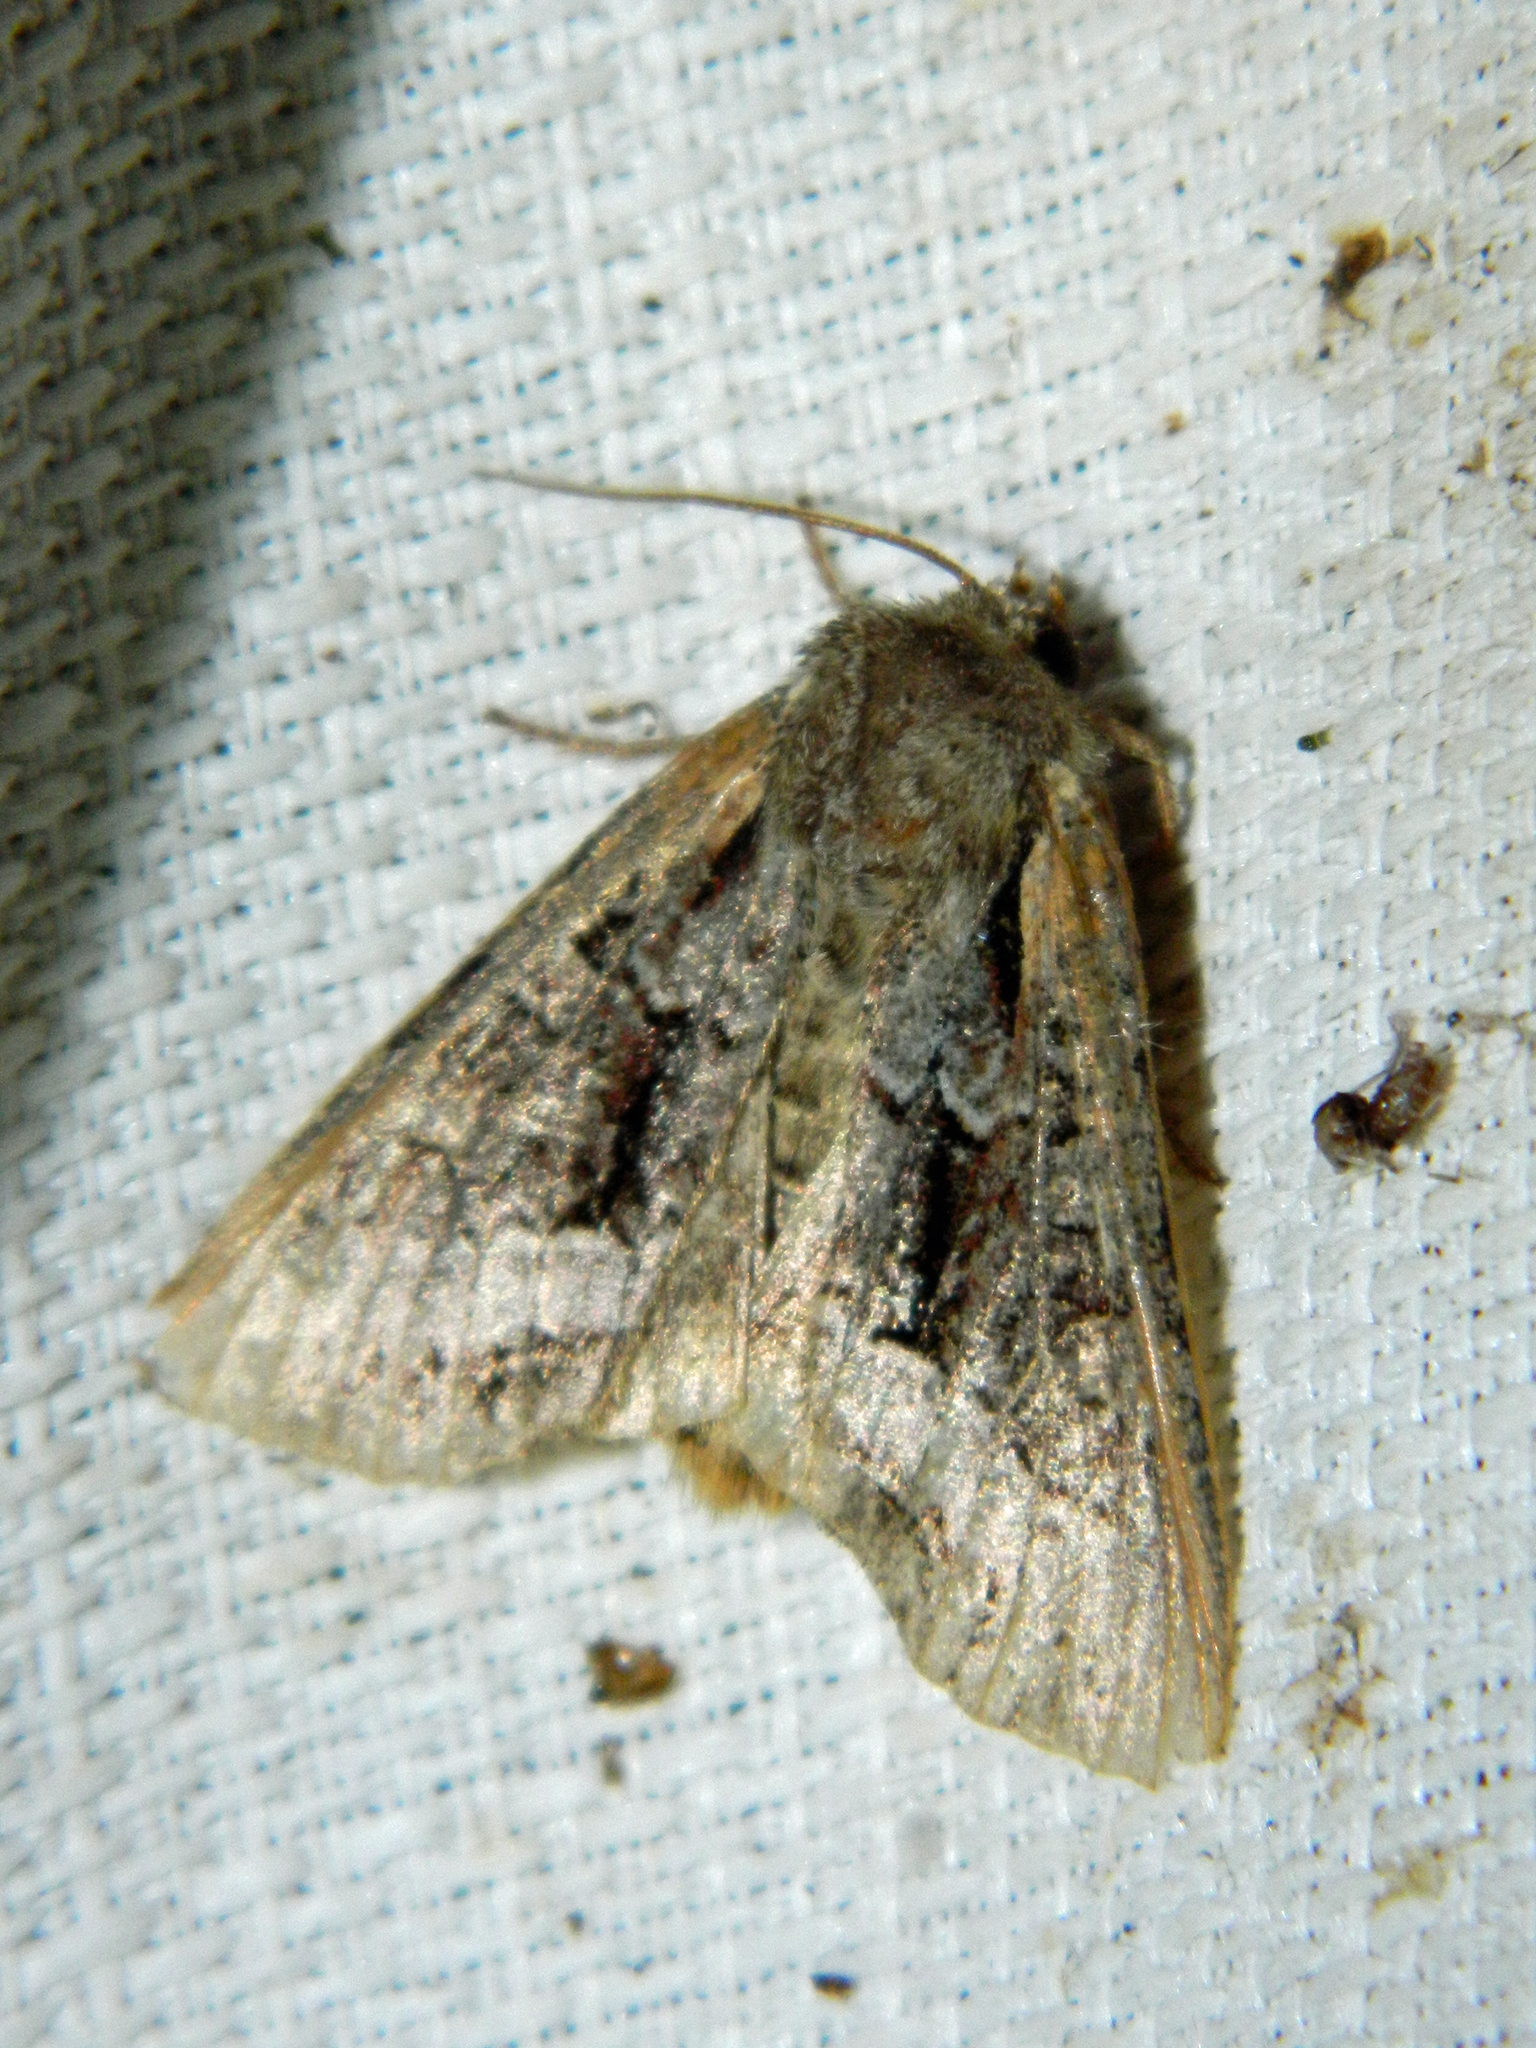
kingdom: Animalia
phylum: Arthropoda
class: Insecta
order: Lepidoptera
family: Noctuidae
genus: Lacanobia
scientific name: Lacanobia grandis
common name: Grand arches moth
